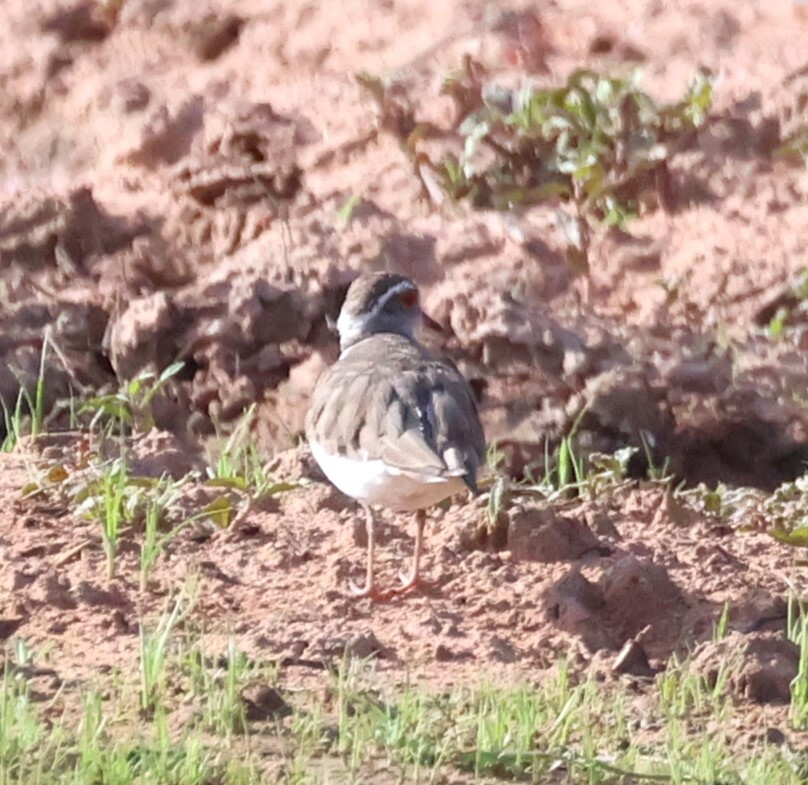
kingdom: Animalia
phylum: Chordata
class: Aves
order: Charadriiformes
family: Charadriidae
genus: Charadrius
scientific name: Charadrius tricollaris
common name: Three-banded plover
